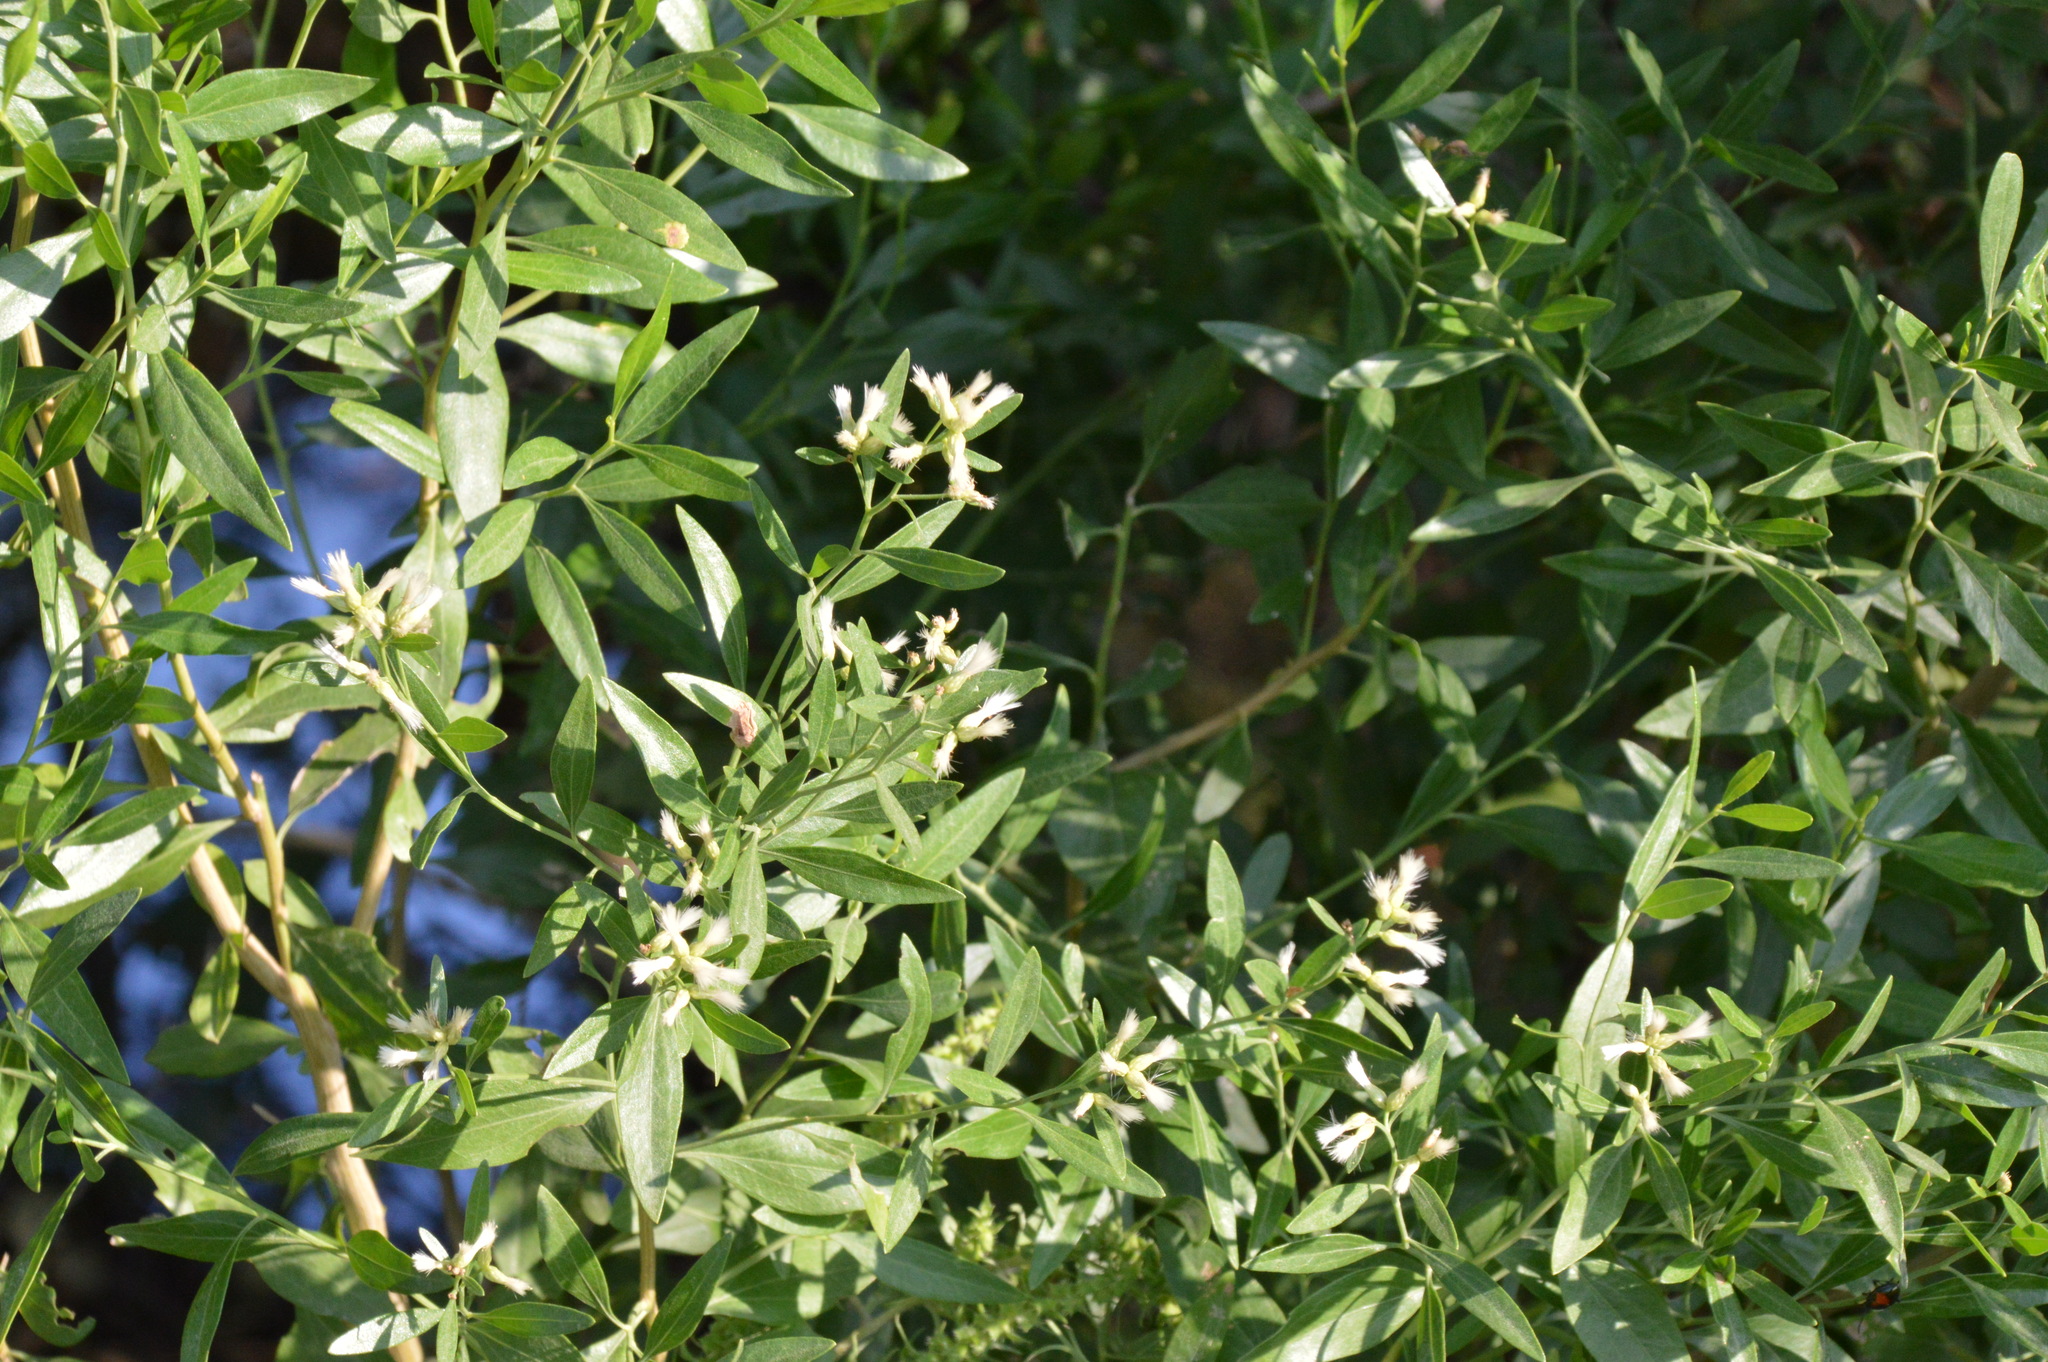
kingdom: Plantae
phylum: Tracheophyta
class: Magnoliopsida
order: Asterales
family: Asteraceae
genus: Baccharis
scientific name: Baccharis halimifolia
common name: Eastern baccharis
